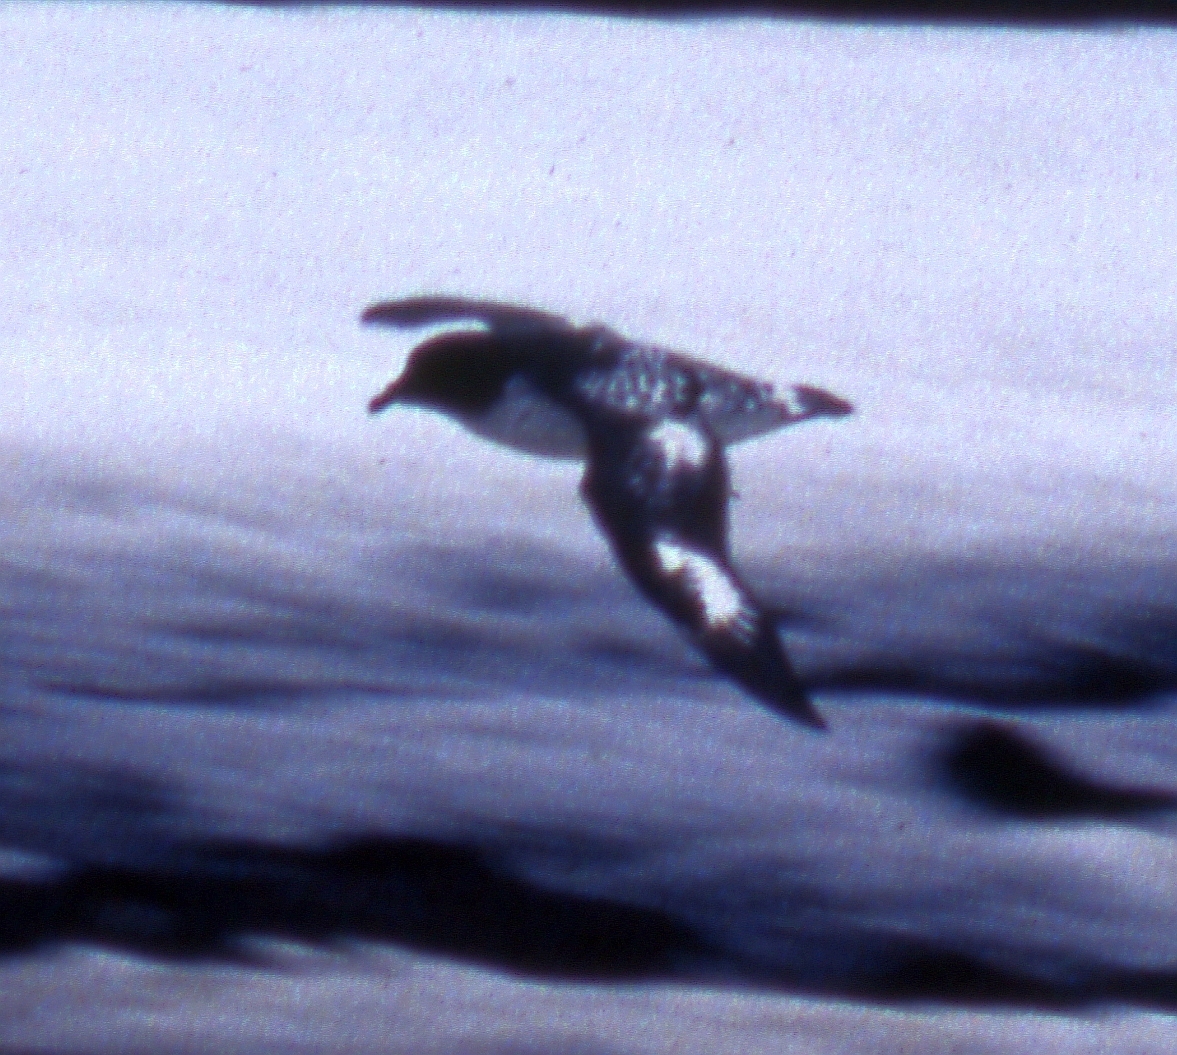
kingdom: Animalia
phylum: Chordata
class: Aves
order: Procellariiformes
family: Procellariidae
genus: Daption
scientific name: Daption capense
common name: Cape petrel
